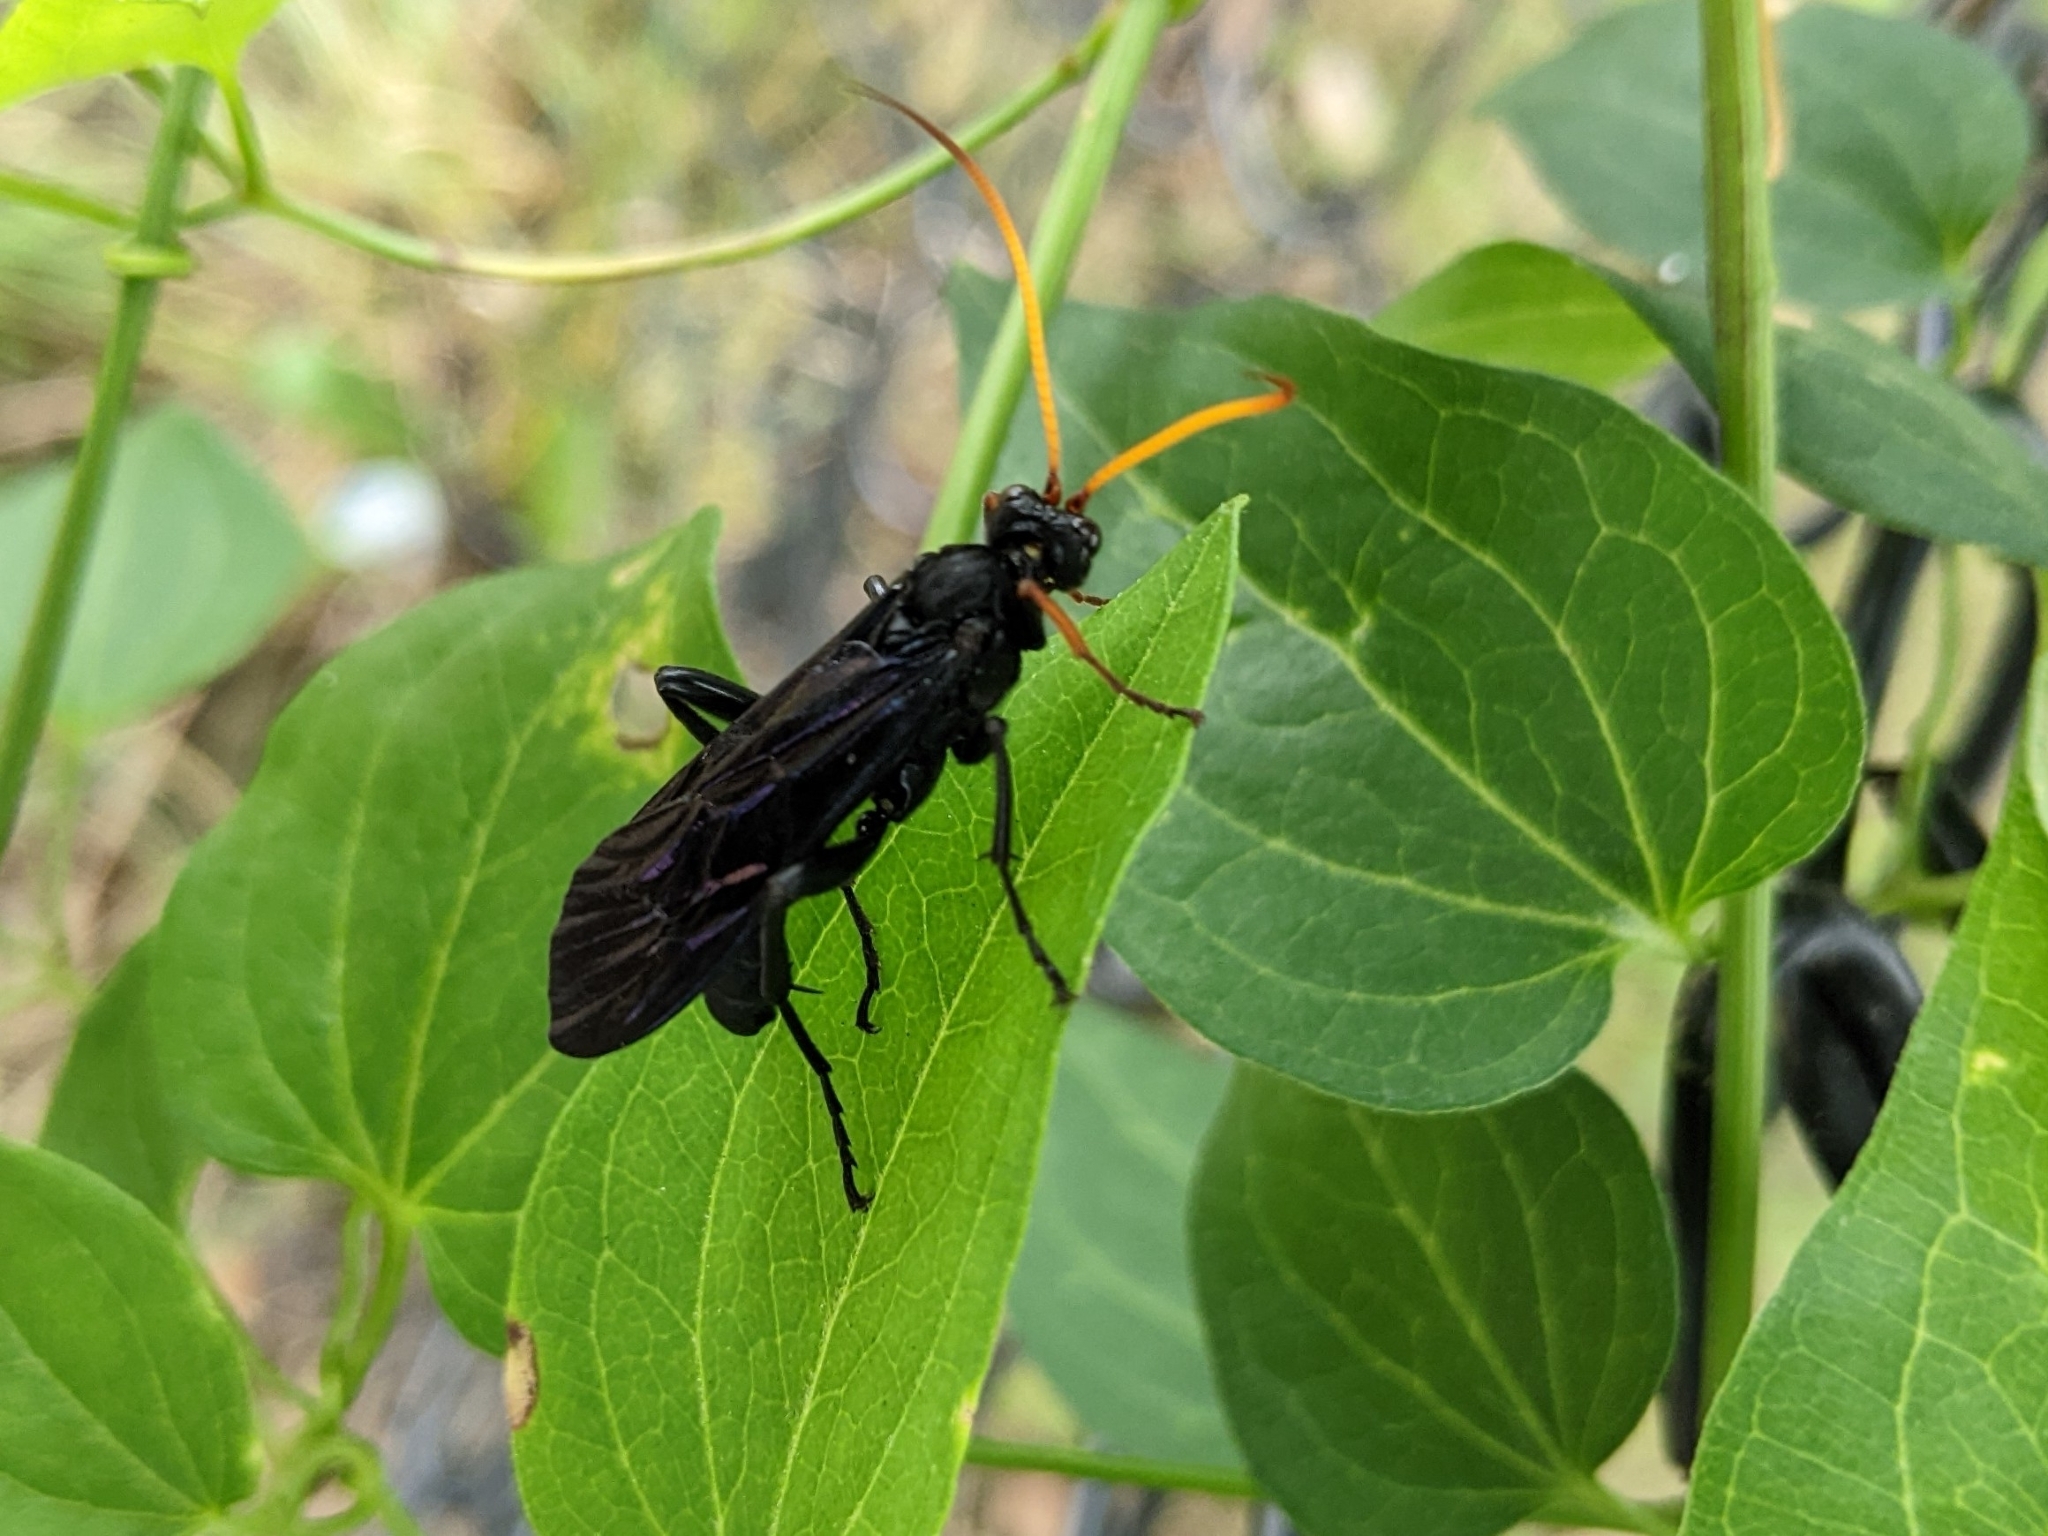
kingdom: Animalia
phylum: Arthropoda
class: Insecta
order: Hymenoptera
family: Ichneumonidae
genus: Gnamptopelta
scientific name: Gnamptopelta obsidianator
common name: Bent-shielded besieger wasp
